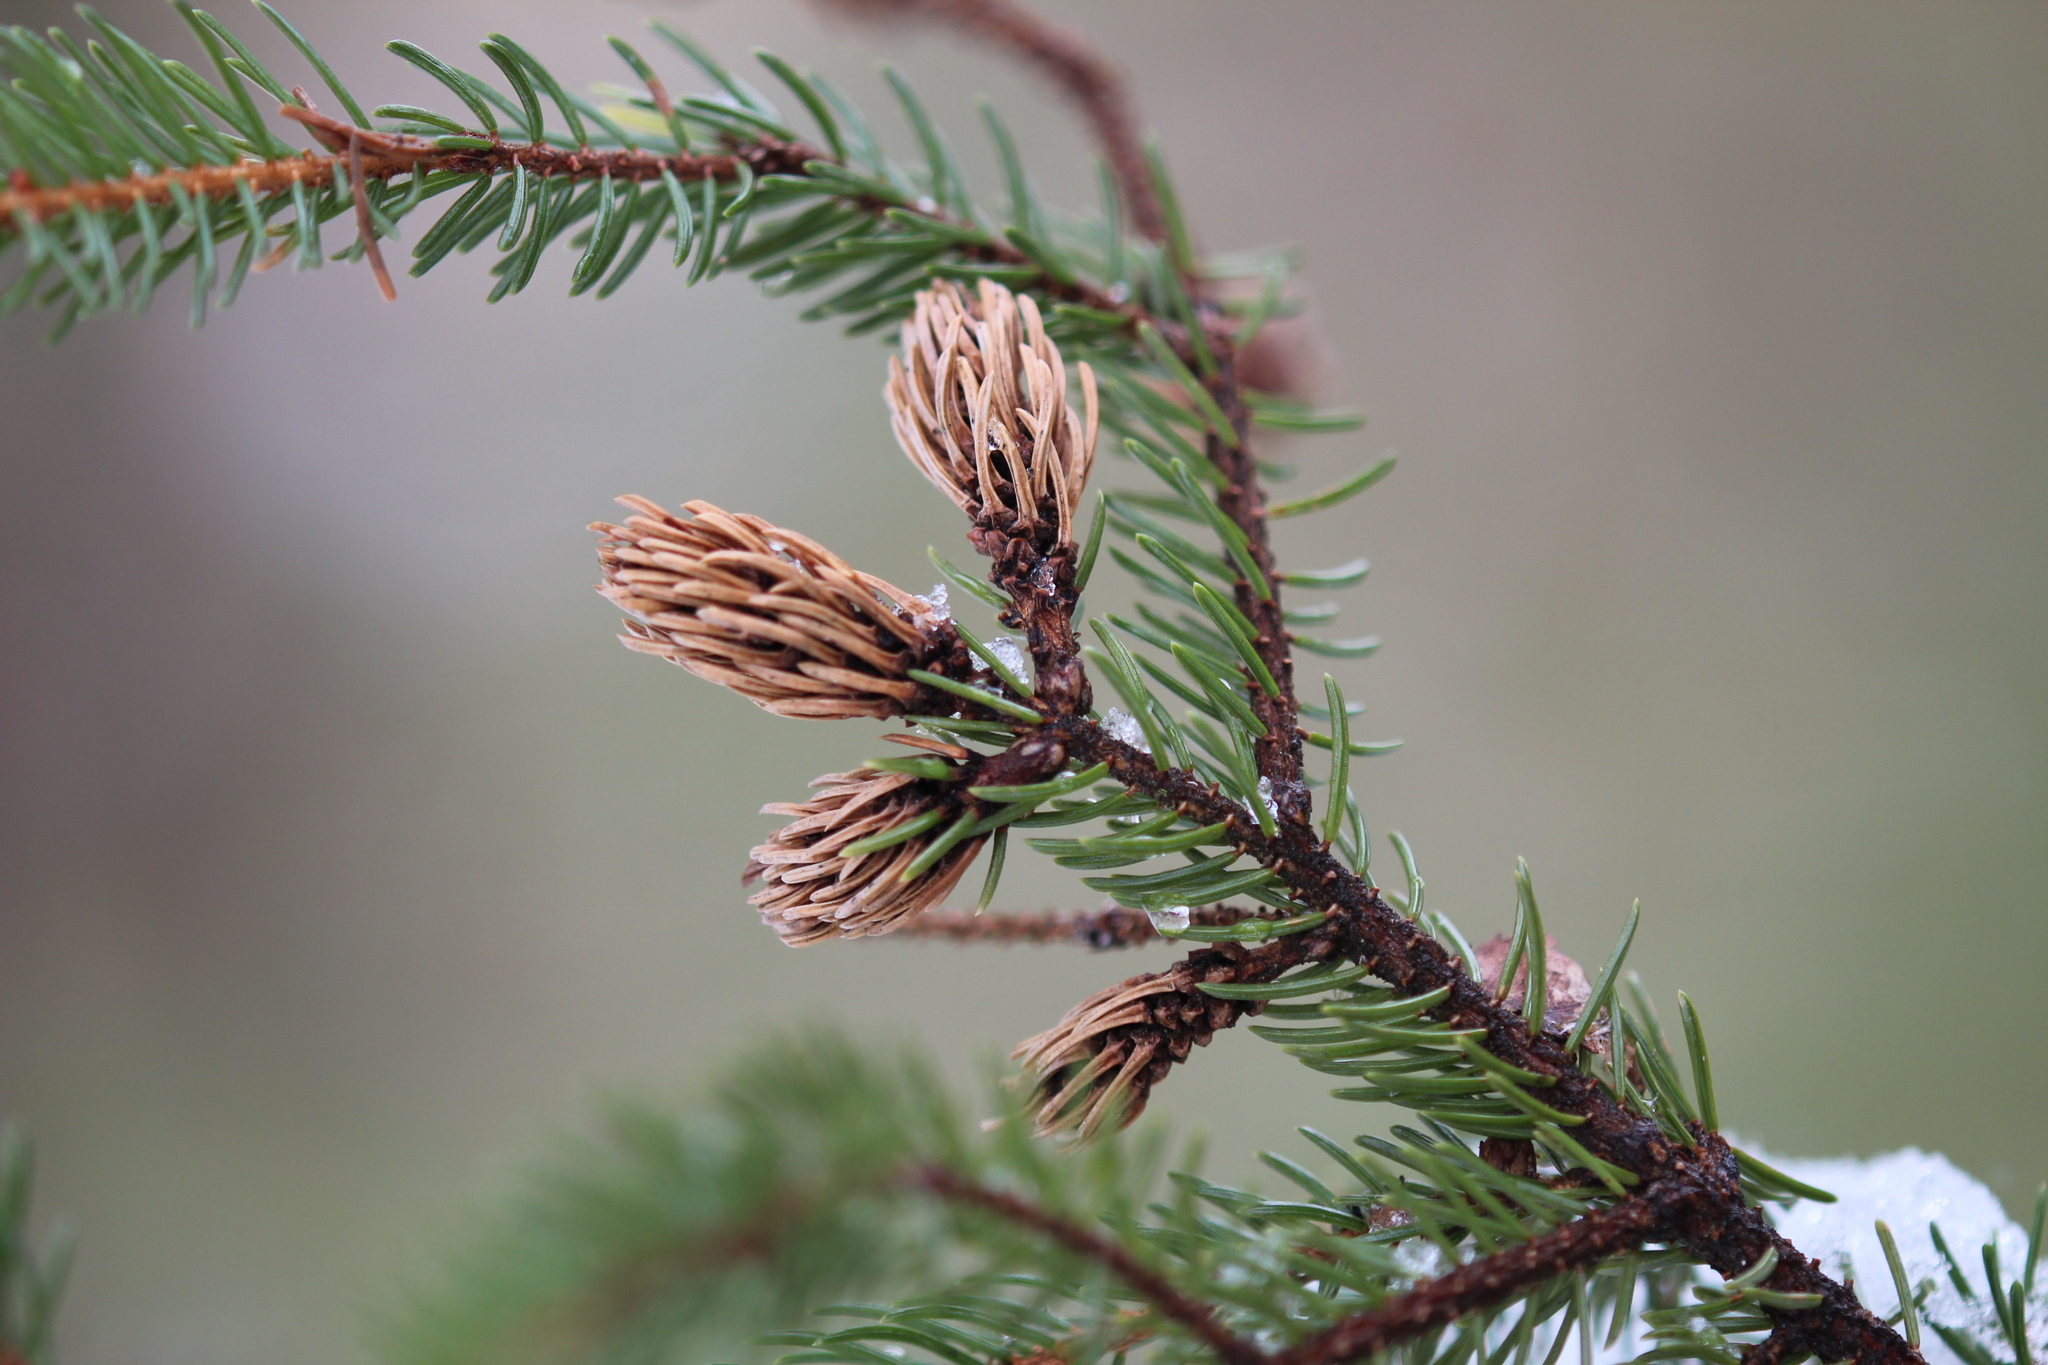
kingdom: Animalia
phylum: Arthropoda
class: Insecta
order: Hemiptera
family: Adelgidae
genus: Adelges
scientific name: Adelges abietis
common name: Eastern spruce gall adelgid
